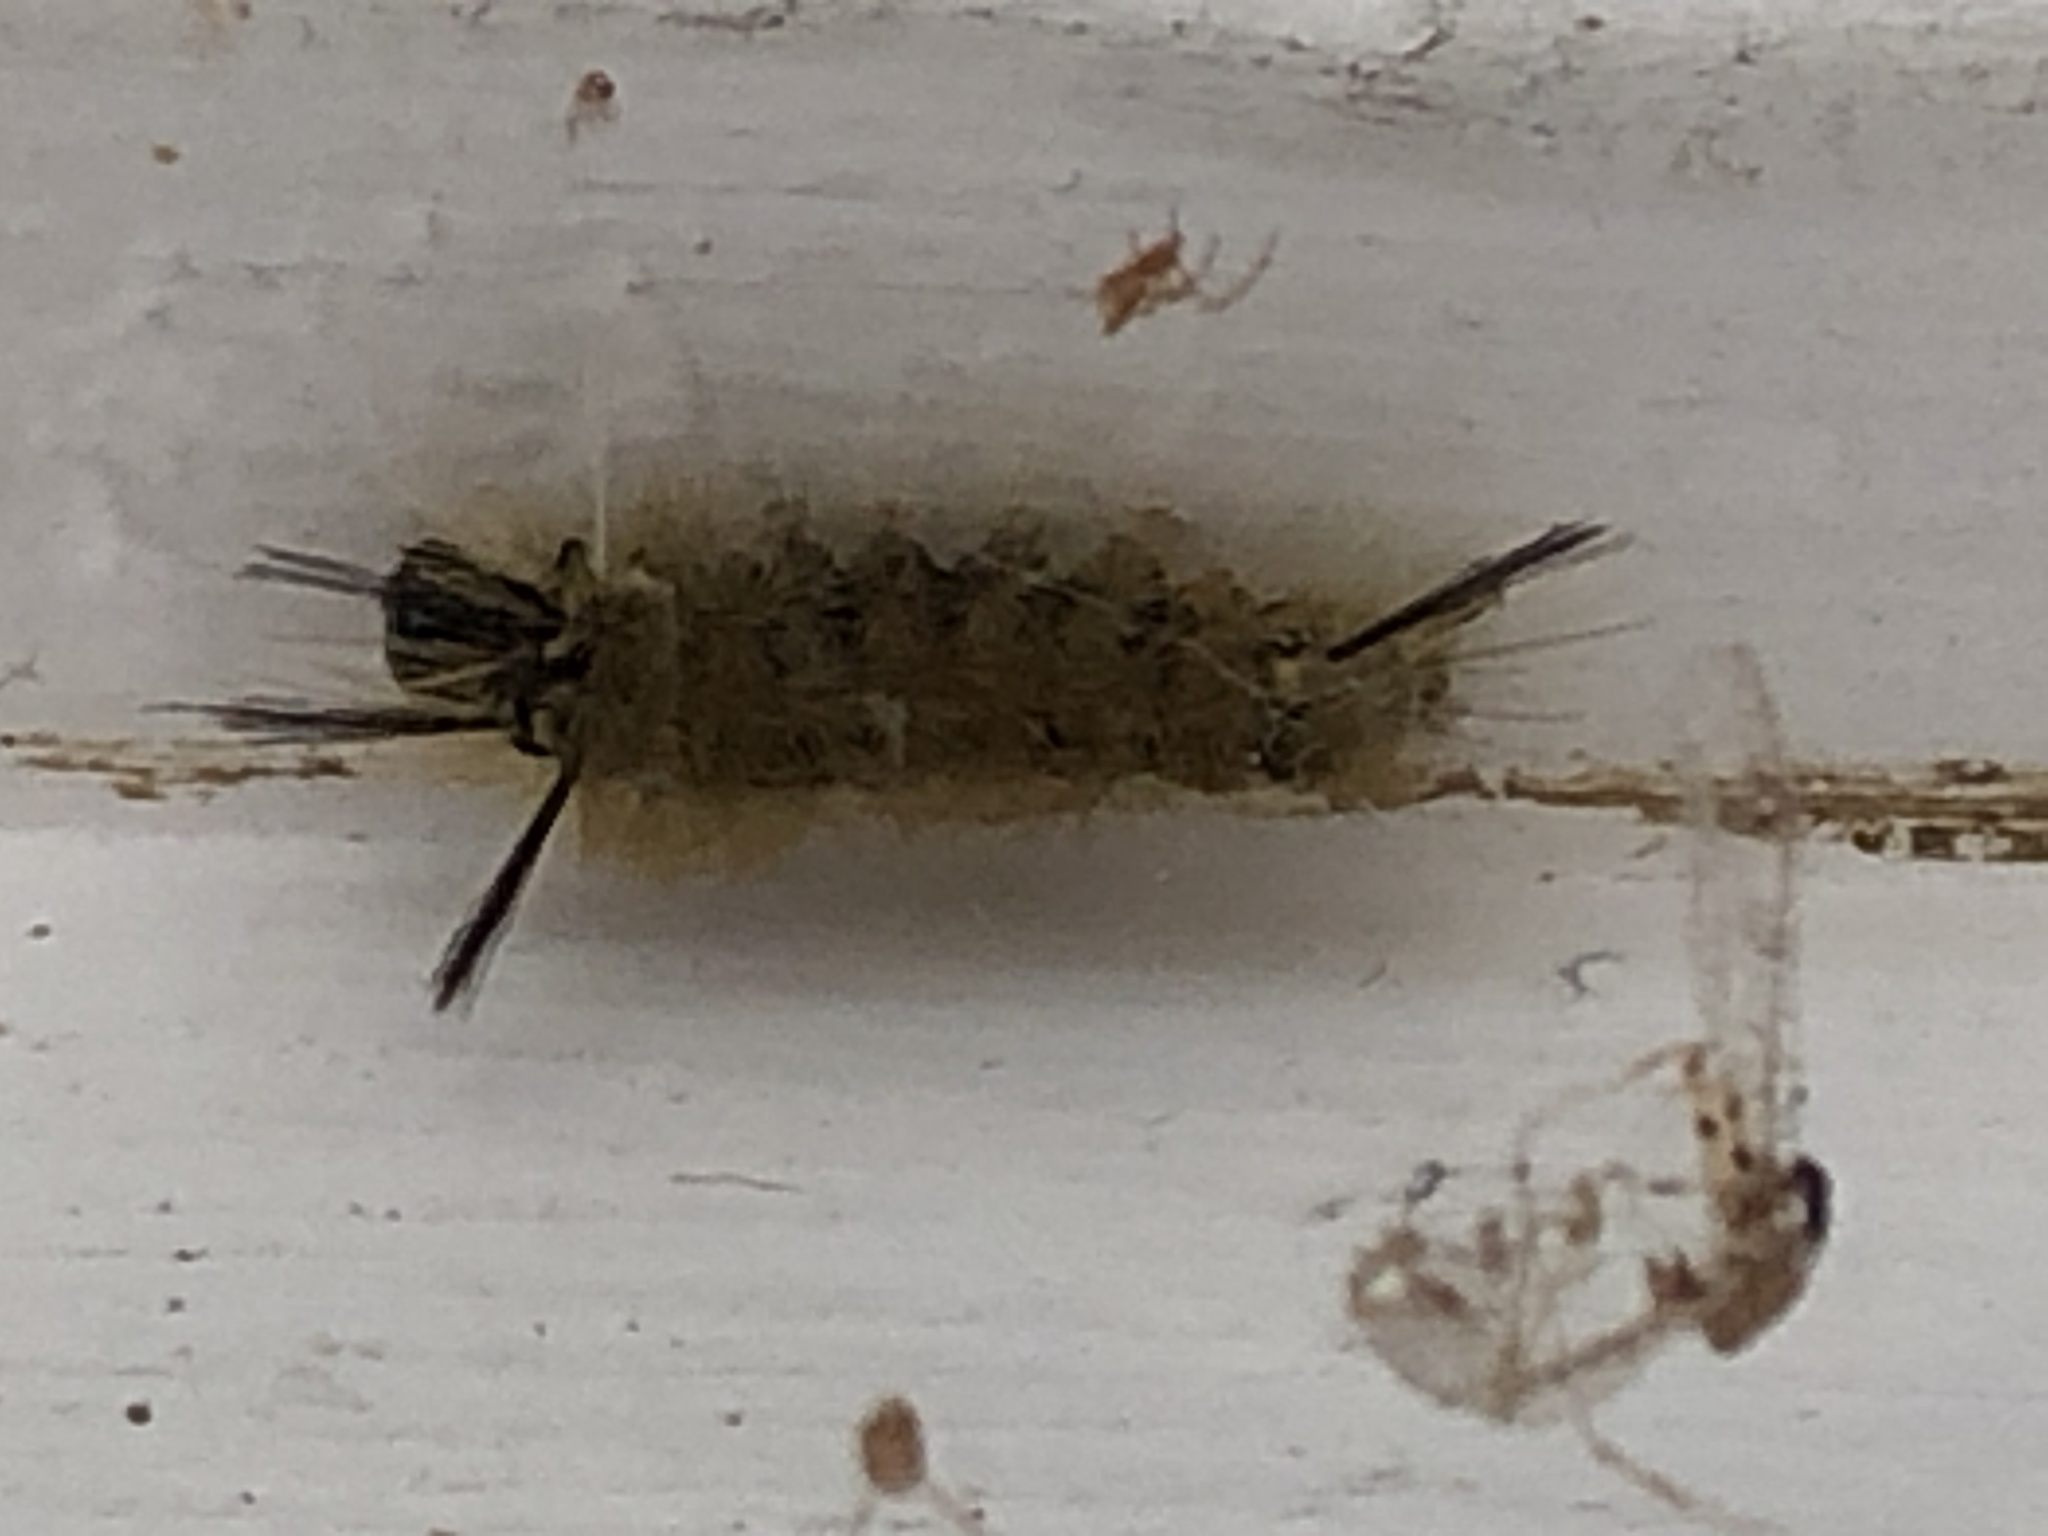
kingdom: Animalia
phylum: Arthropoda
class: Insecta
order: Lepidoptera
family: Erebidae
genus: Halysidota
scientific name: Halysidota tessellaris
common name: Banded tussock moth
